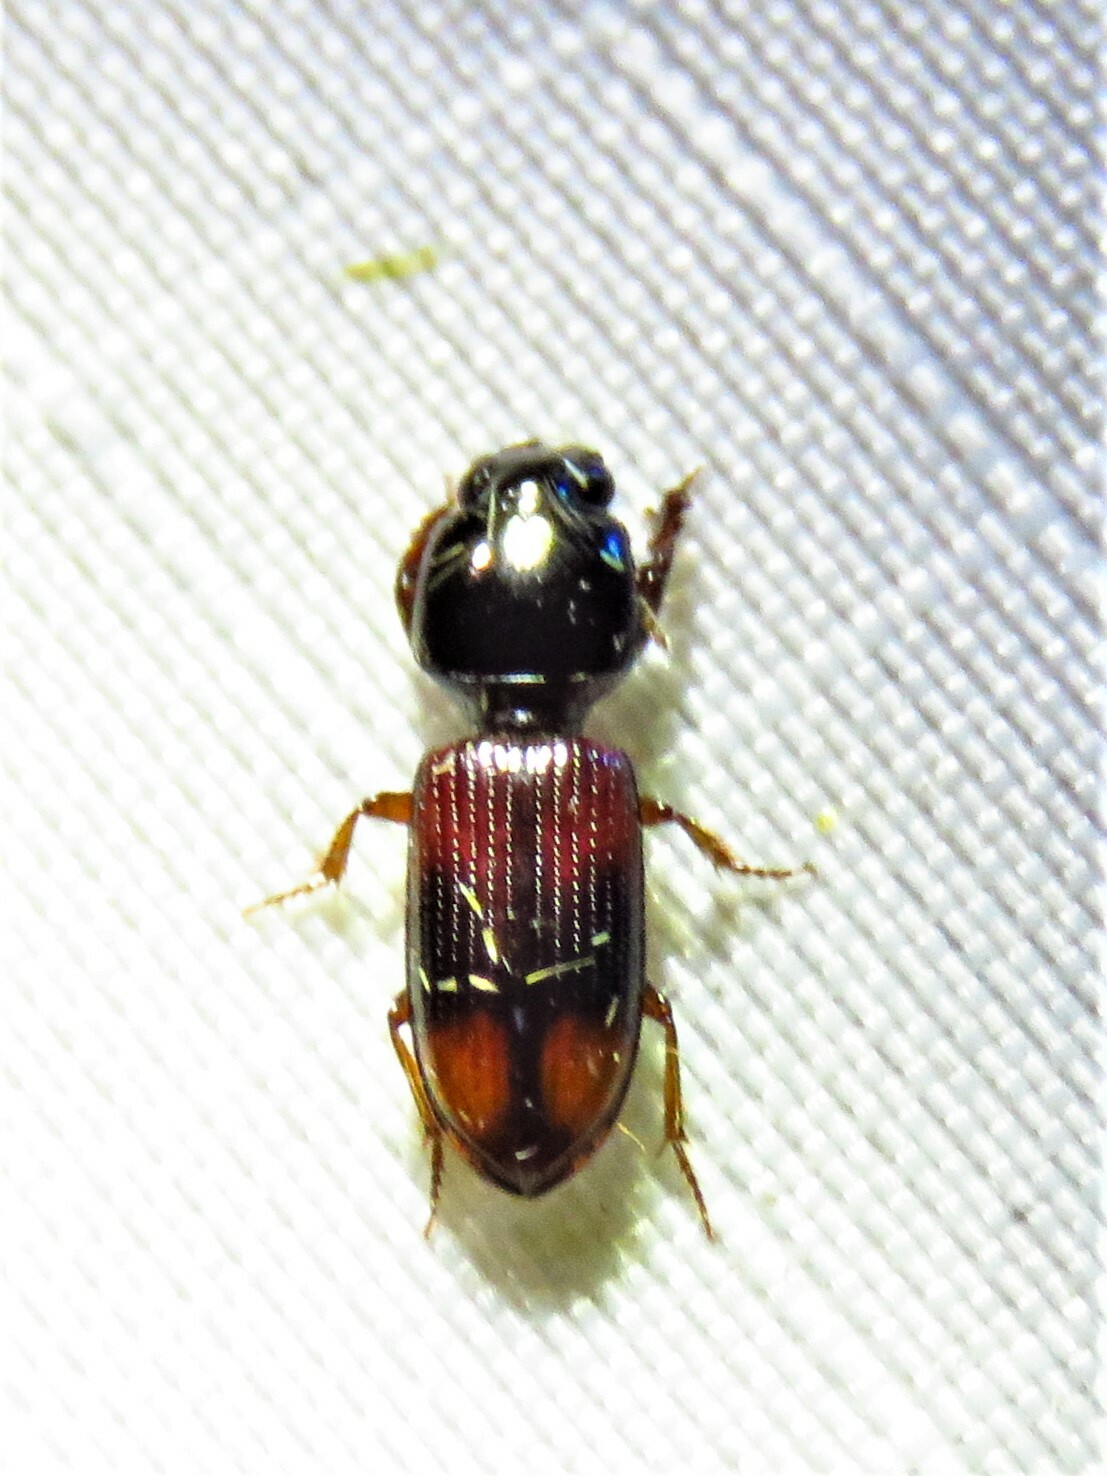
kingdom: Animalia
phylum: Arthropoda
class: Insecta
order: Coleoptera
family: Carabidae
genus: Clivina
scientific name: Clivina bipustulata
